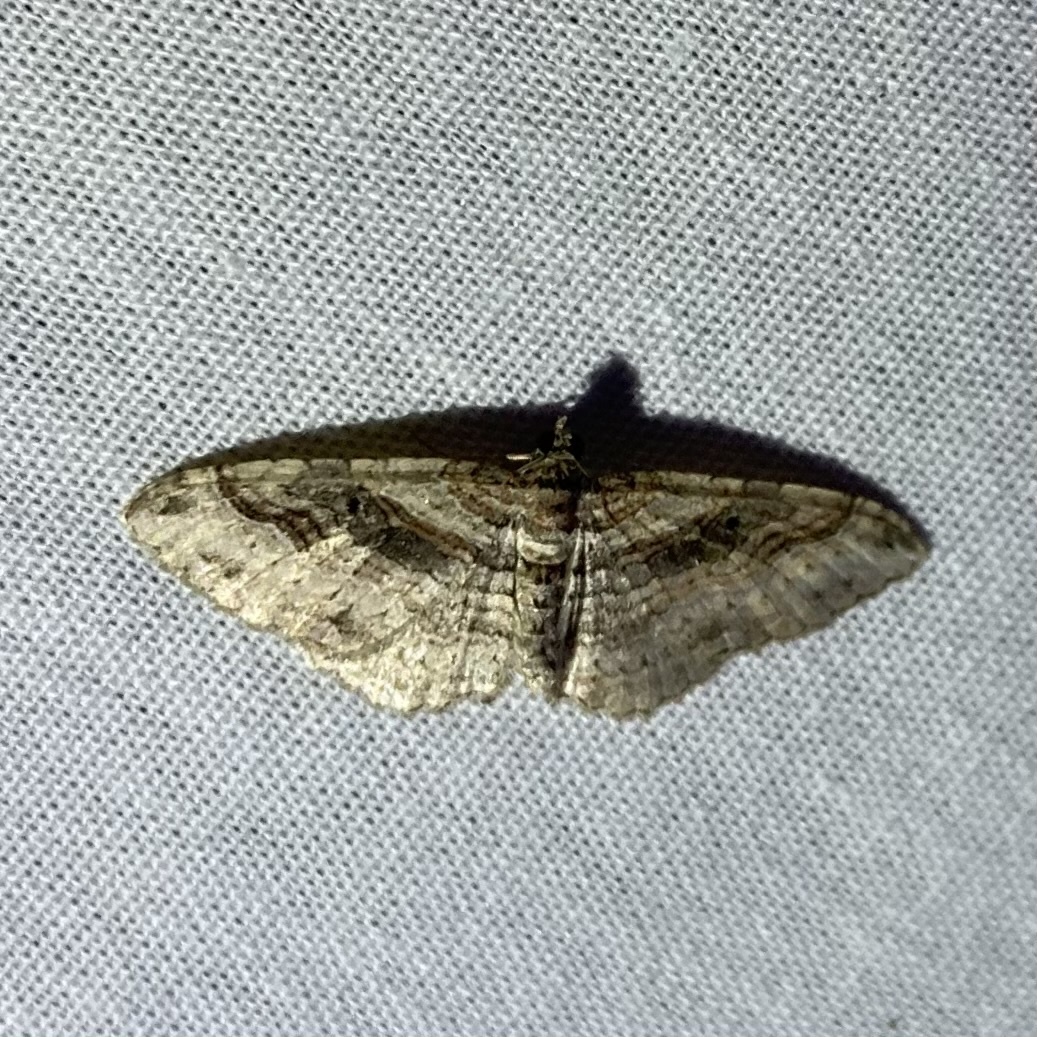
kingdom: Animalia
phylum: Arthropoda
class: Insecta
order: Lepidoptera
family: Geometridae
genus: Costaconvexa
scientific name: Costaconvexa centrostrigaria
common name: Bent-line carpet
